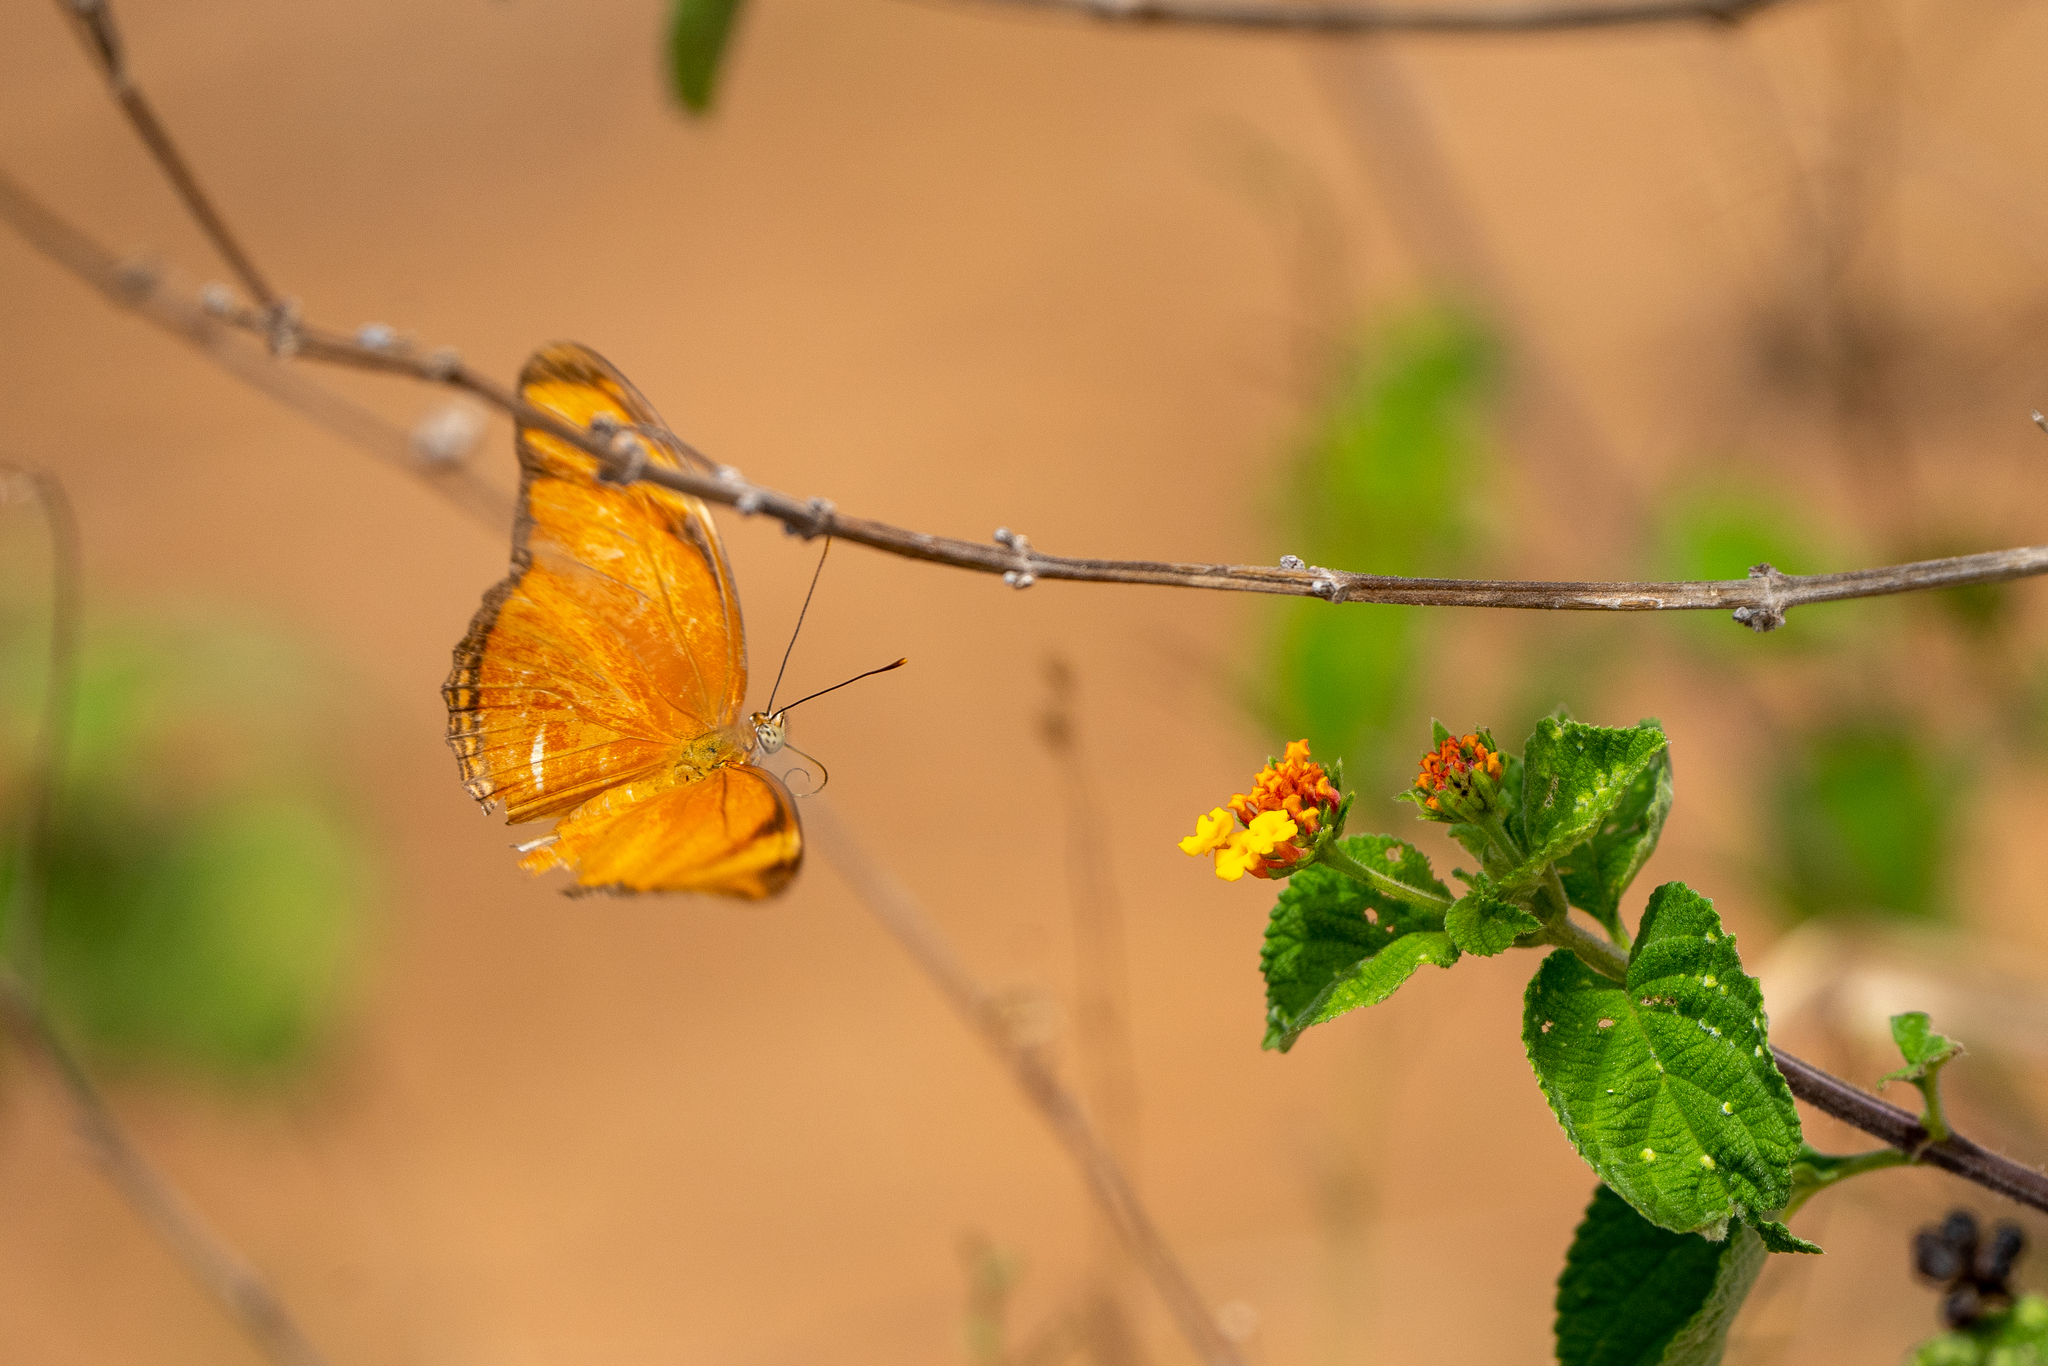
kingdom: Animalia
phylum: Arthropoda
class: Insecta
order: Lepidoptera
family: Nymphalidae
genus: Dryas
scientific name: Dryas iulia
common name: Flambeau
